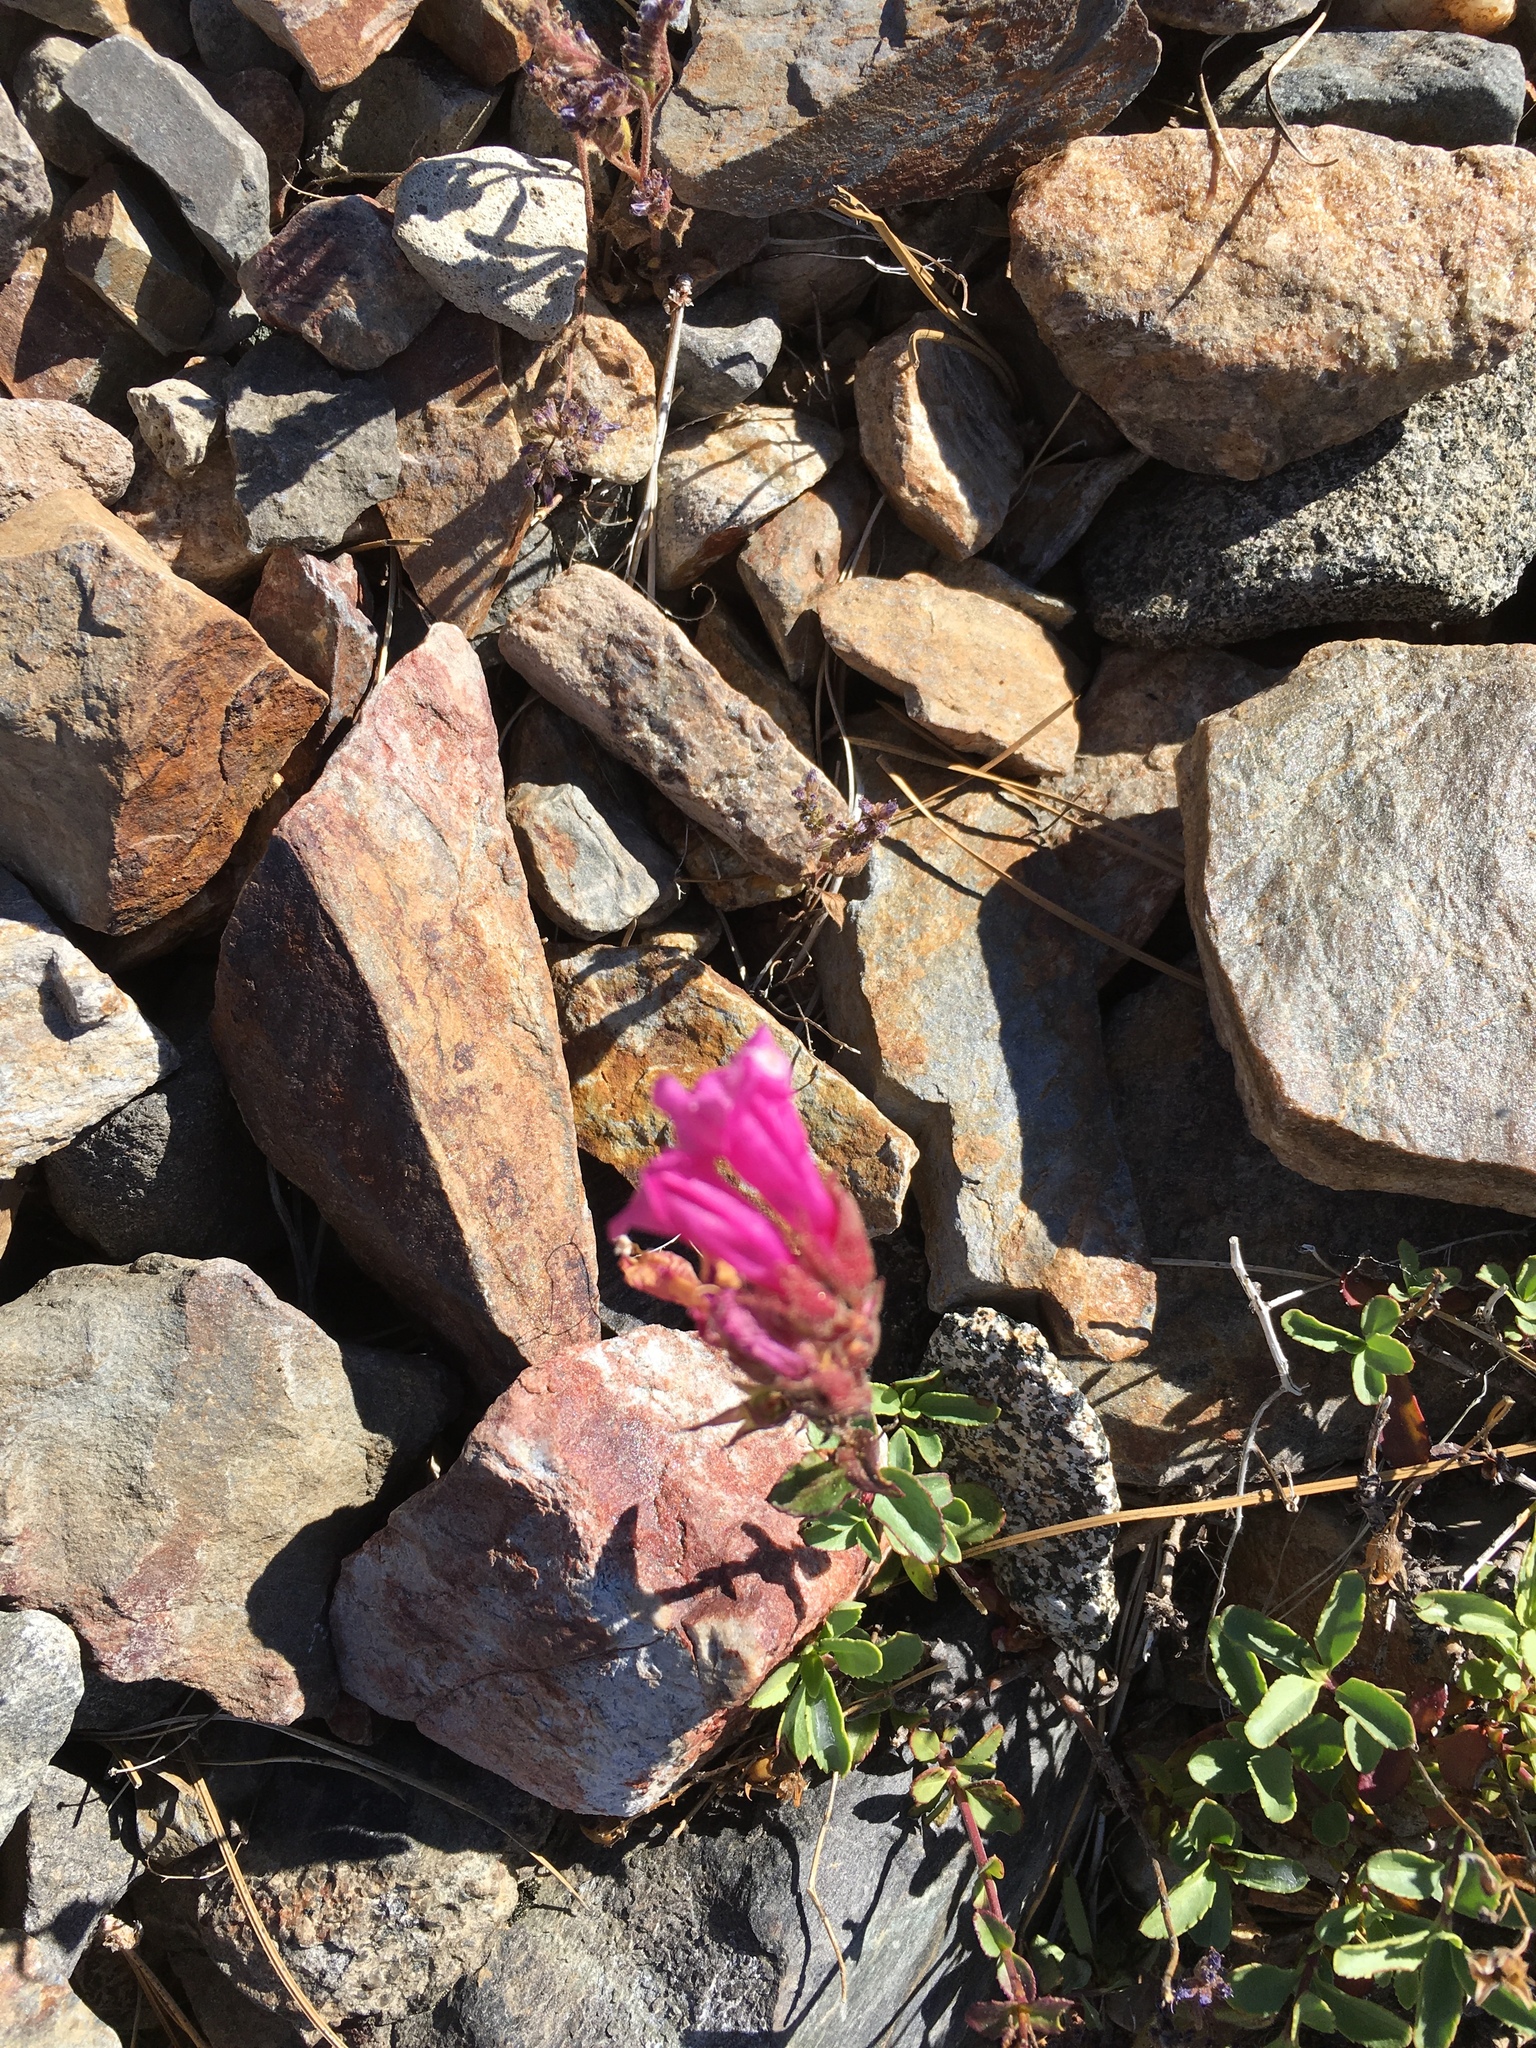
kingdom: Plantae
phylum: Tracheophyta
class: Magnoliopsida
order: Lamiales
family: Plantaginaceae
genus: Penstemon
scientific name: Penstemon newberryi
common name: Mountain-pride
